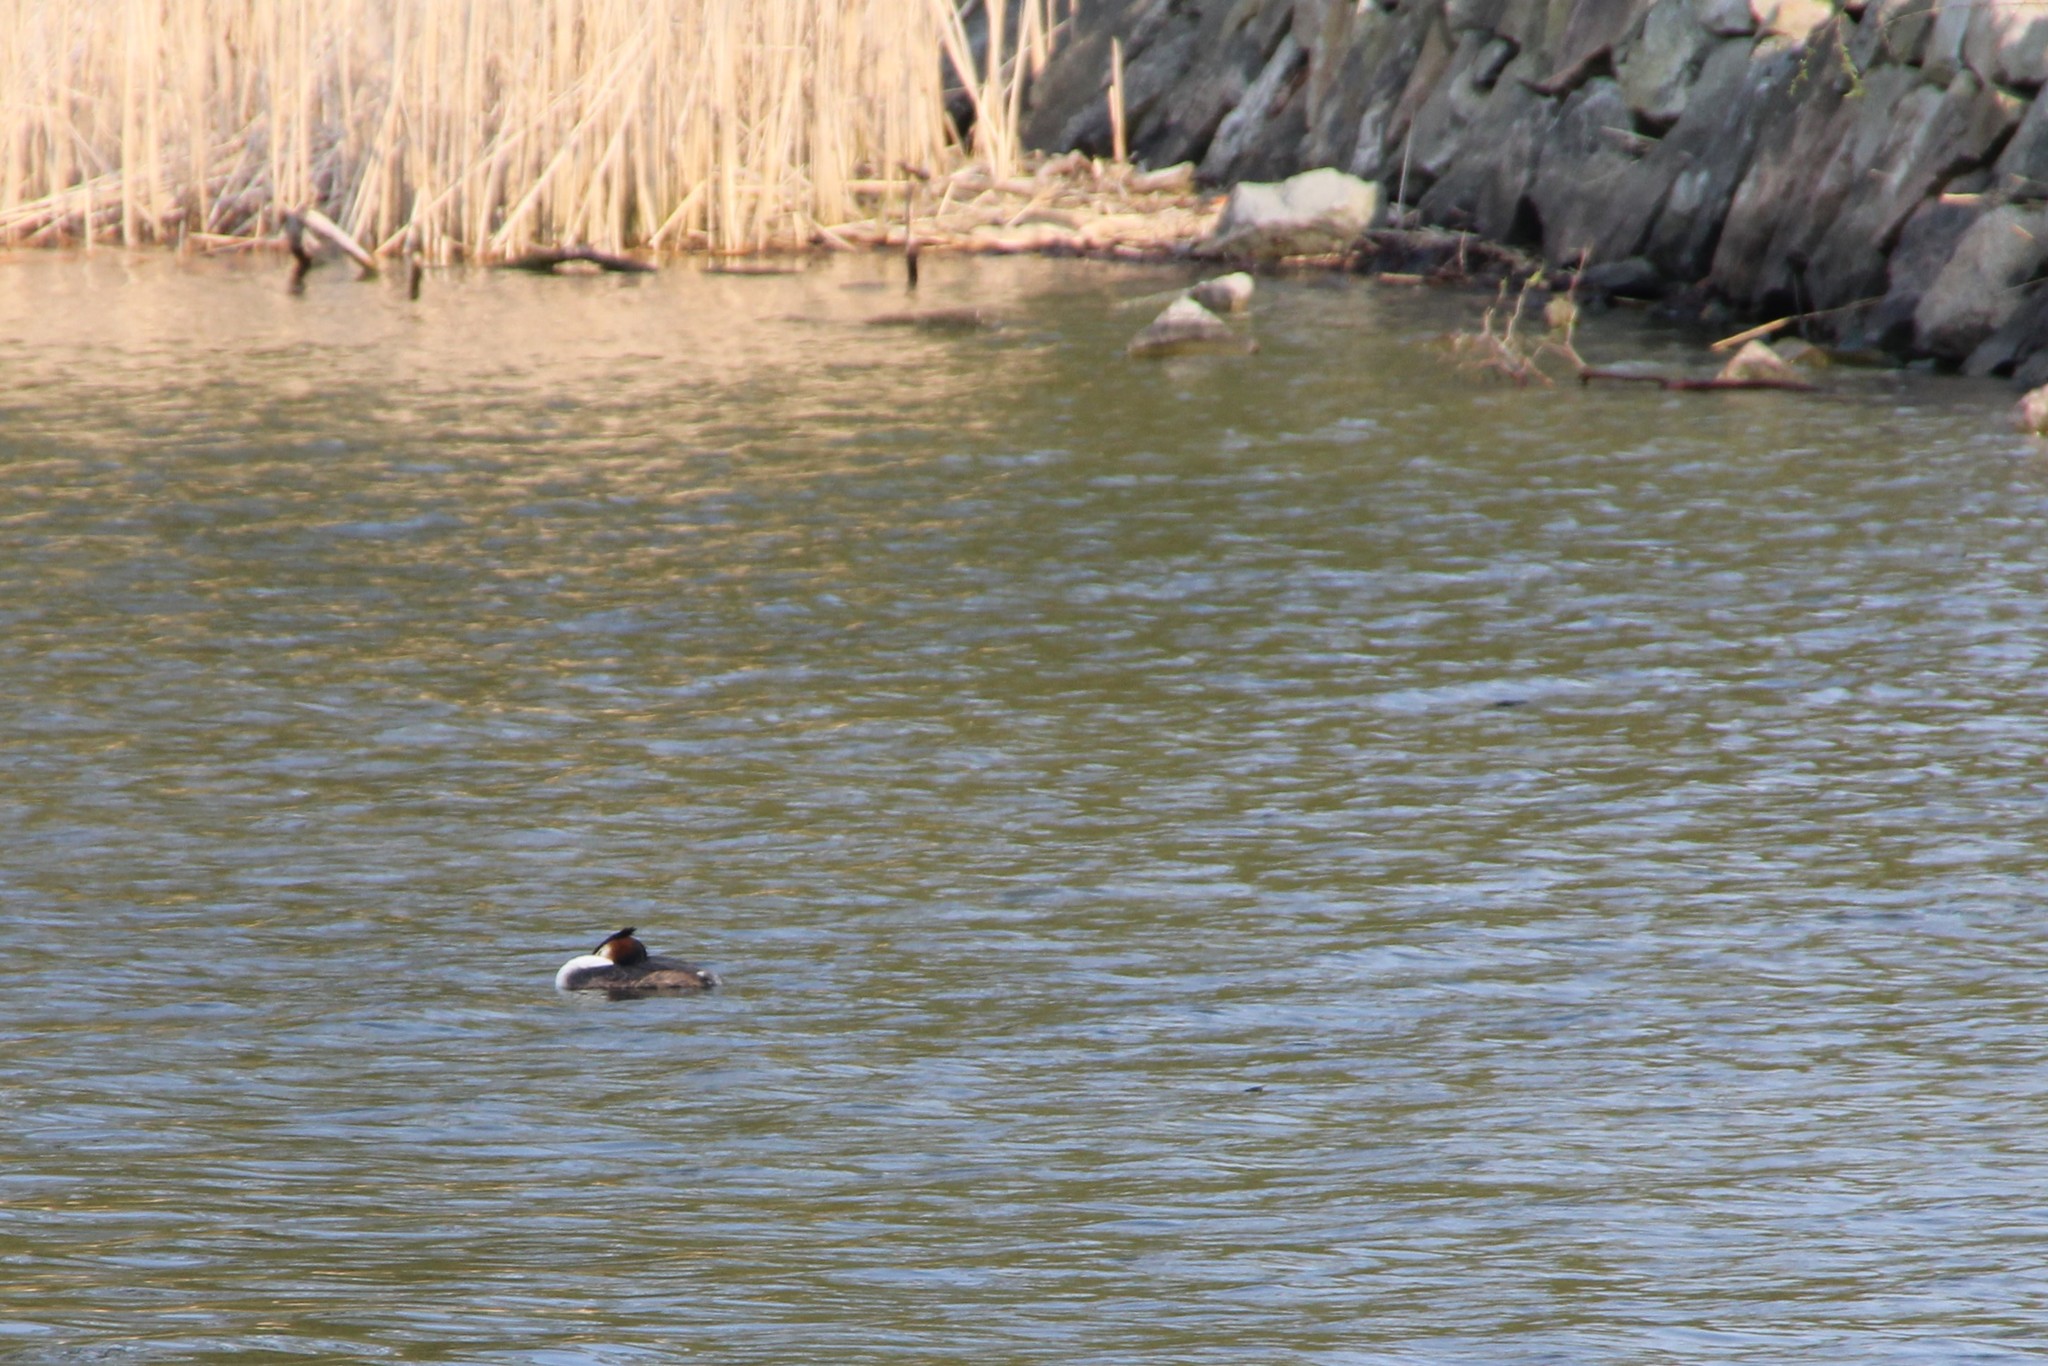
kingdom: Animalia
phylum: Chordata
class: Aves
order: Podicipediformes
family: Podicipedidae
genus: Podiceps
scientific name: Podiceps cristatus
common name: Great crested grebe
